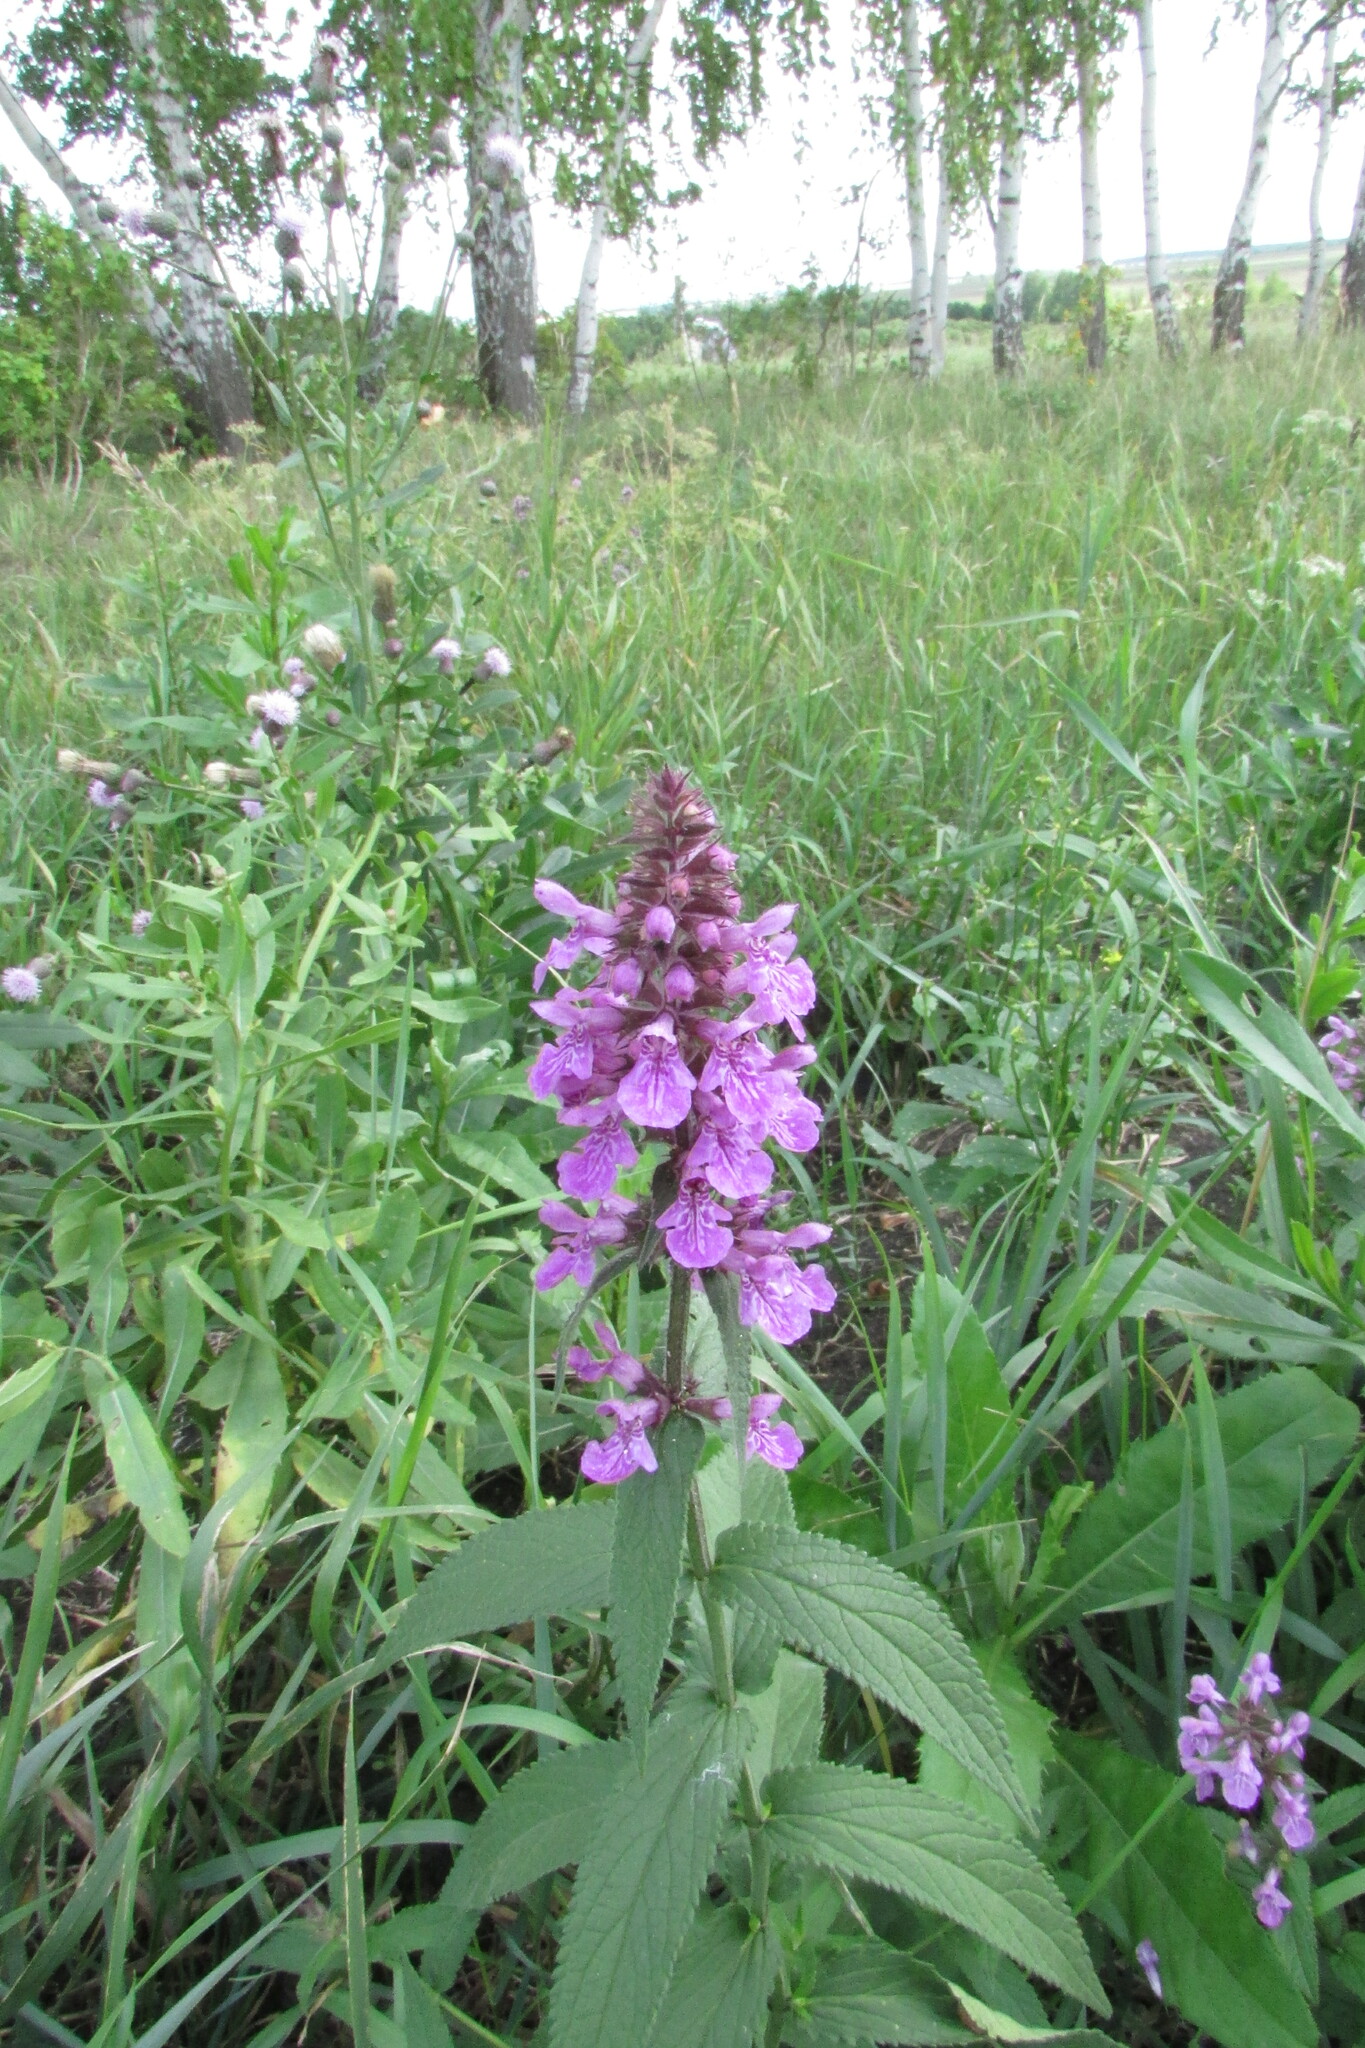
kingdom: Plantae
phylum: Tracheophyta
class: Magnoliopsida
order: Lamiales
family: Lamiaceae
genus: Stachys
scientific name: Stachys palustris
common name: Marsh woundwort
